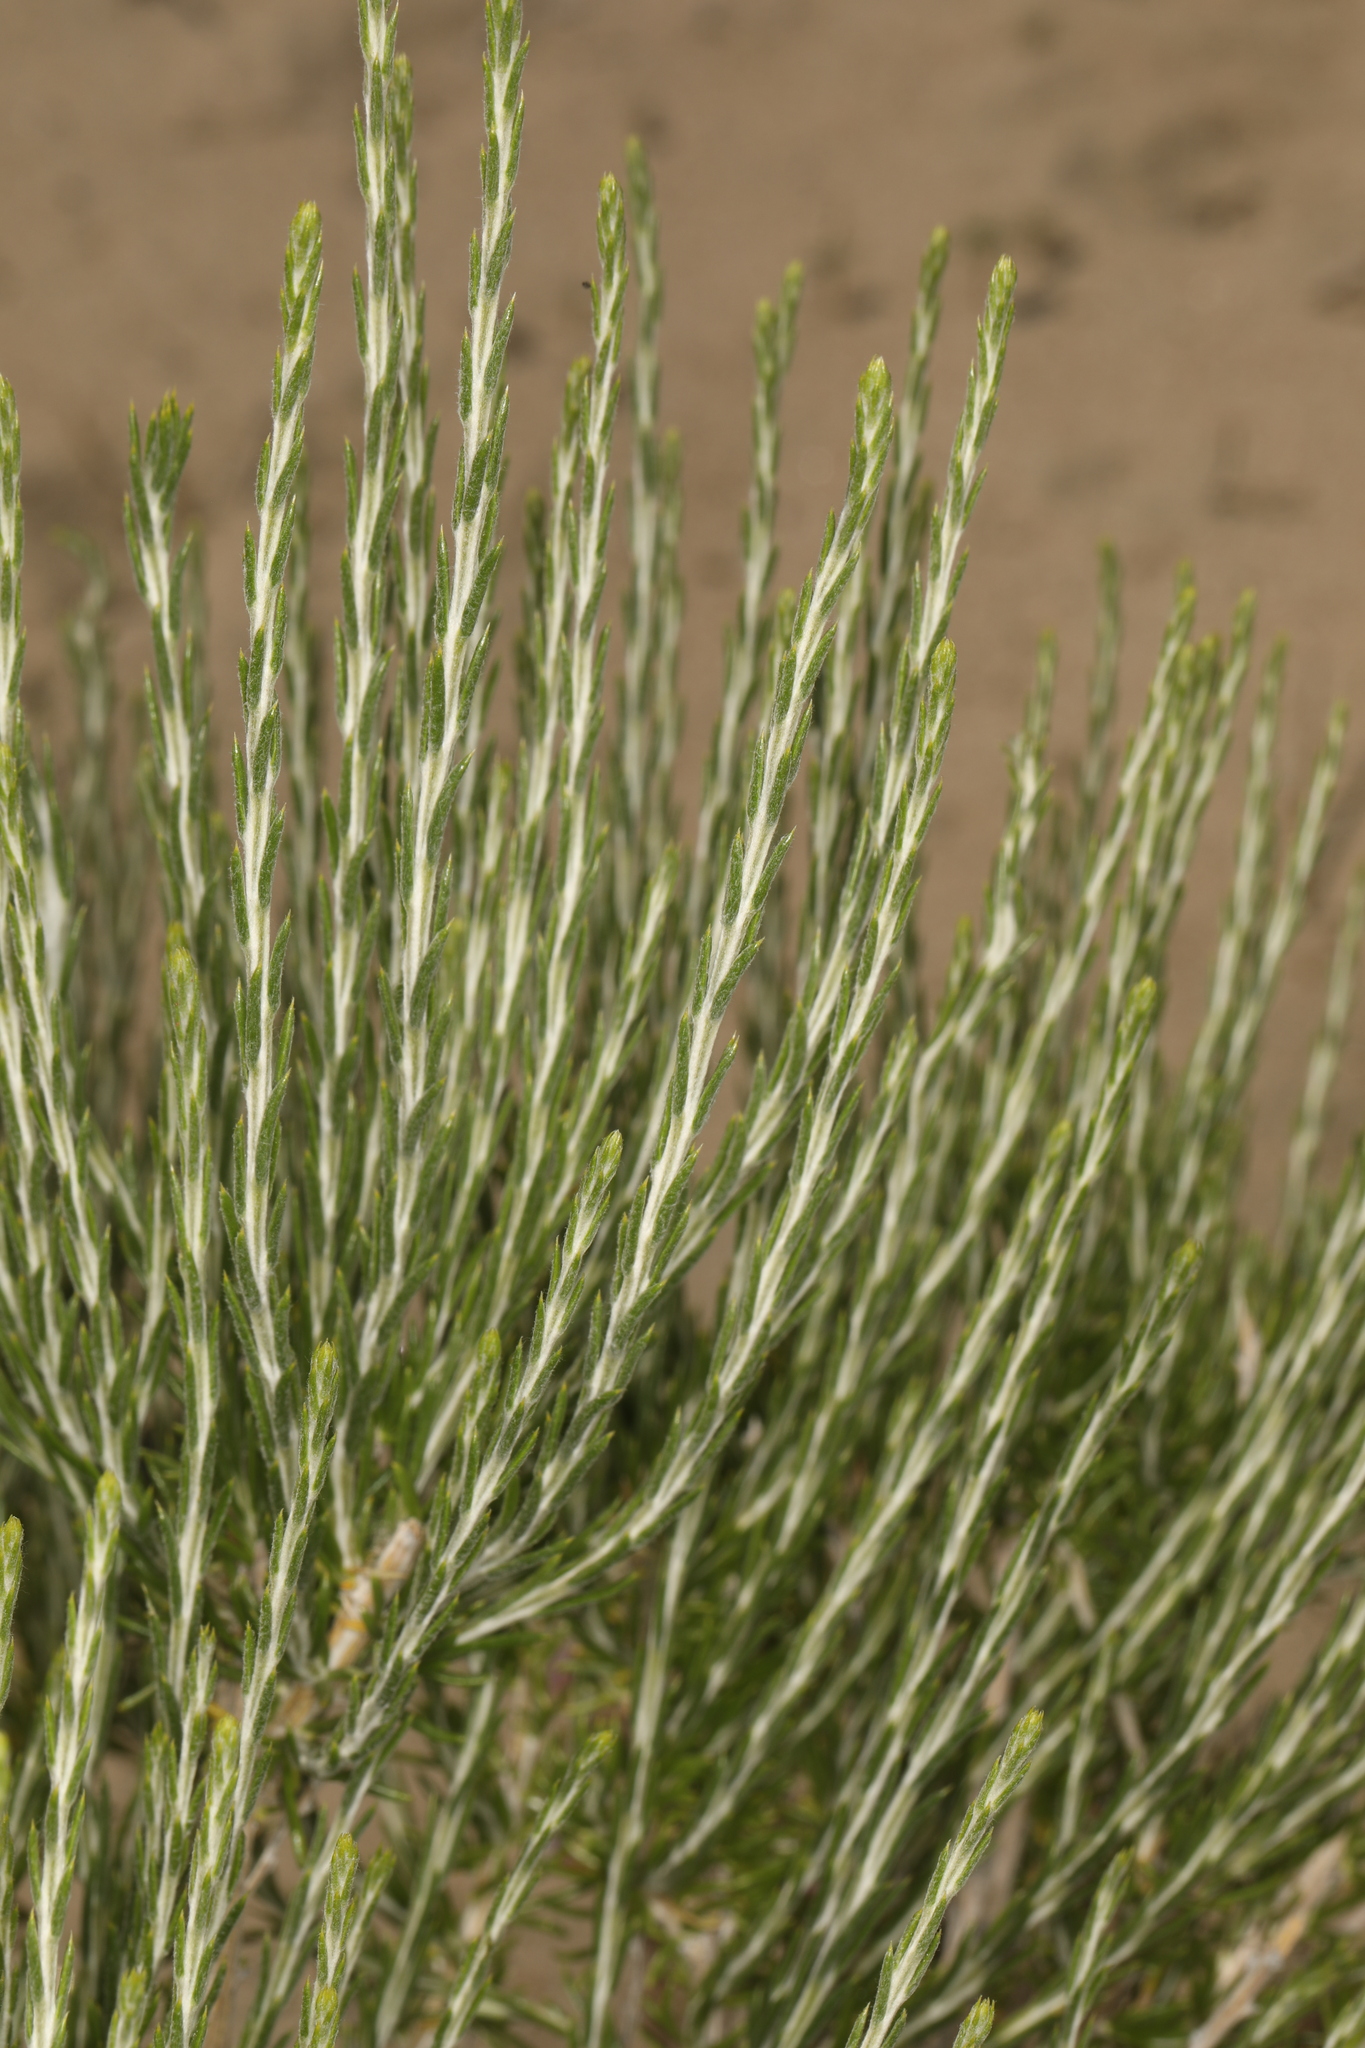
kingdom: Plantae
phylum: Tracheophyta
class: Magnoliopsida
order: Asterales
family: Asteraceae
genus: Tetradymia
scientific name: Tetradymia glabrata
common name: Smooth tetradymia
